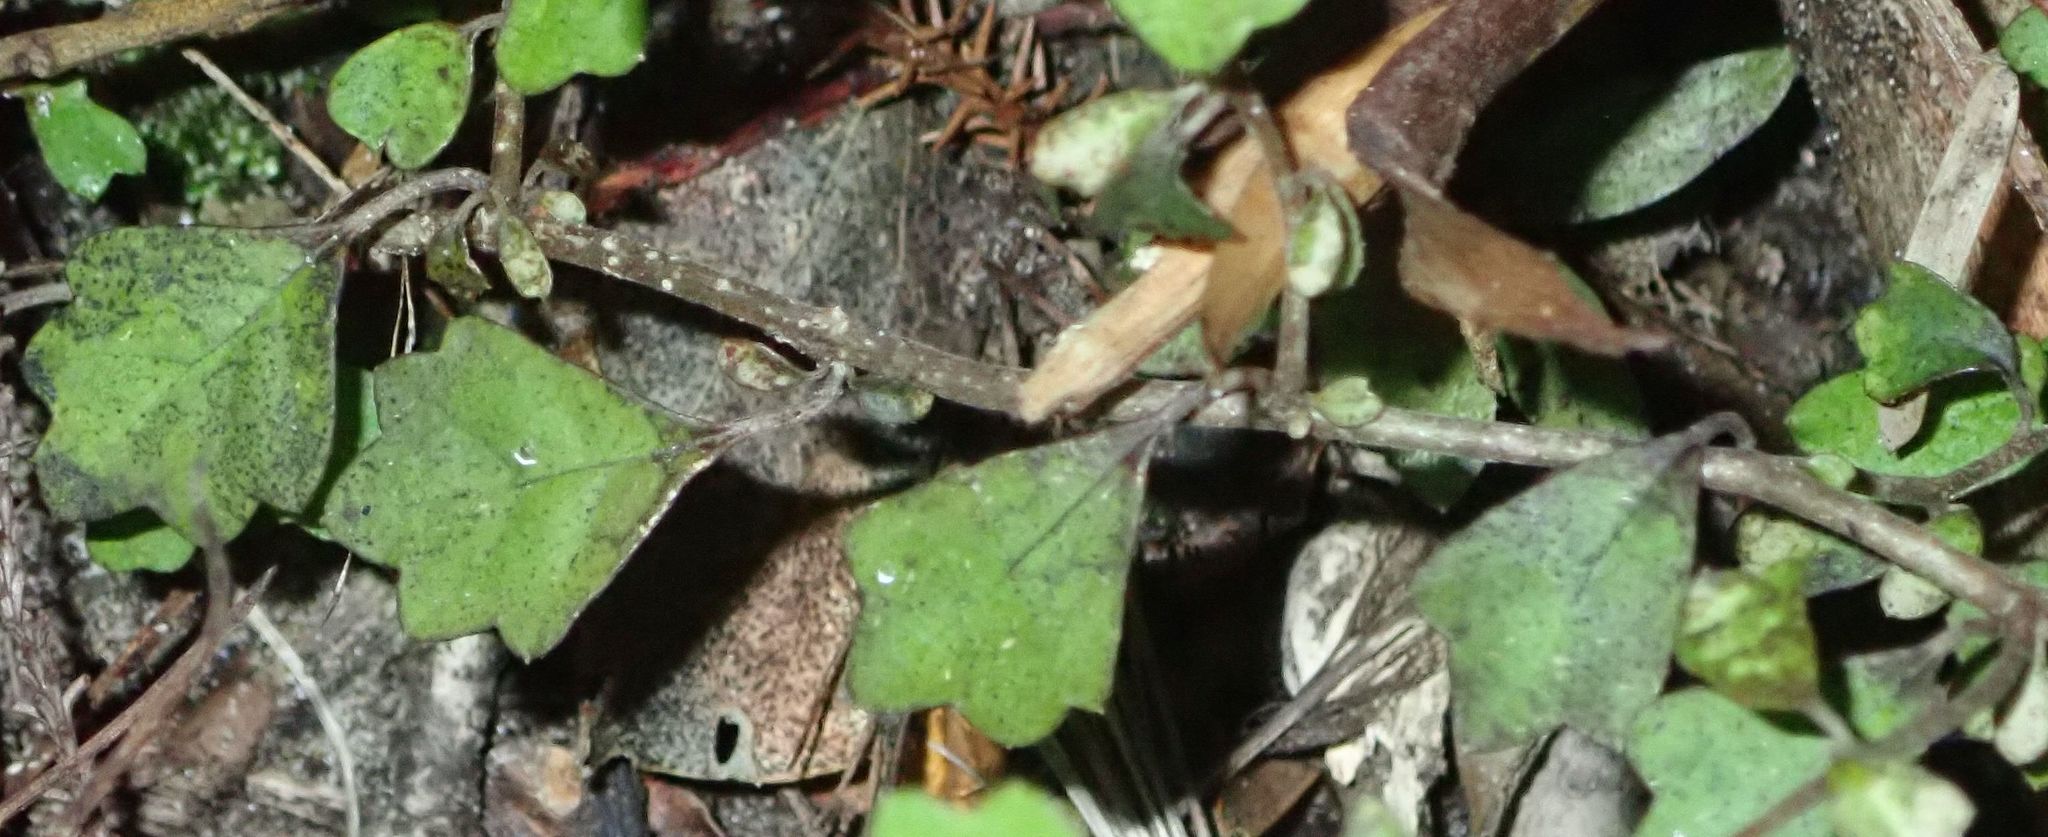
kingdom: Plantae
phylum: Tracheophyta
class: Magnoliopsida
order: Apiales
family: Pennantiaceae
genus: Pennantia
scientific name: Pennantia corymbosa
